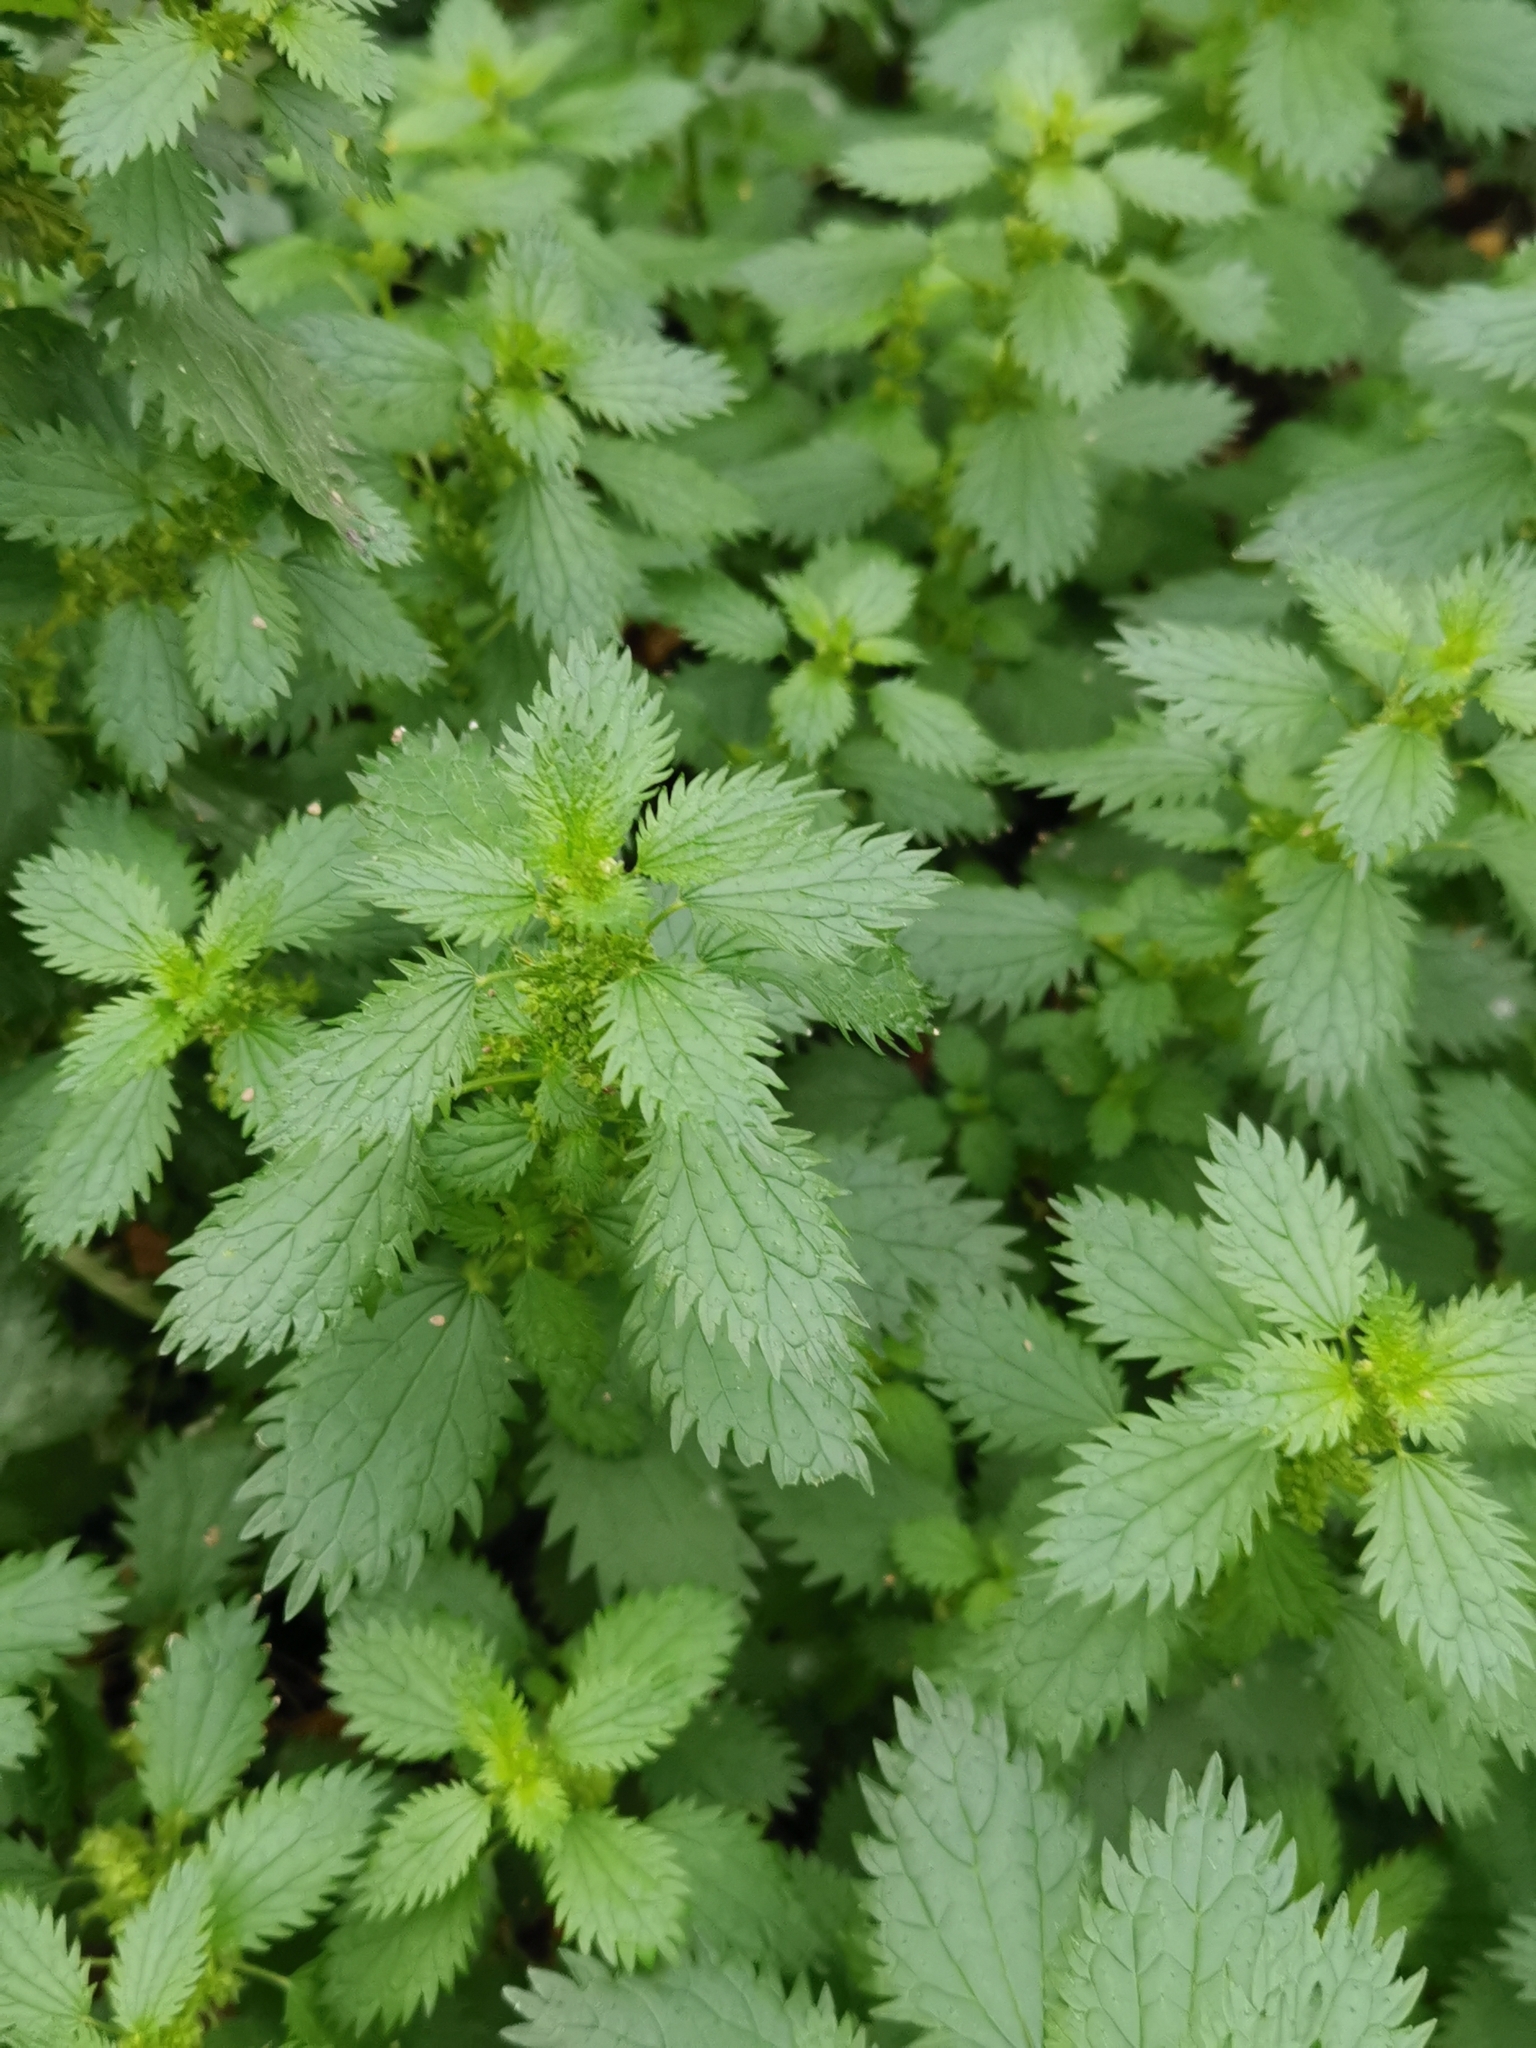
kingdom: Plantae
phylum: Tracheophyta
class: Magnoliopsida
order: Rosales
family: Urticaceae
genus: Urtica
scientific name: Urtica urens
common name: Dwarf nettle
